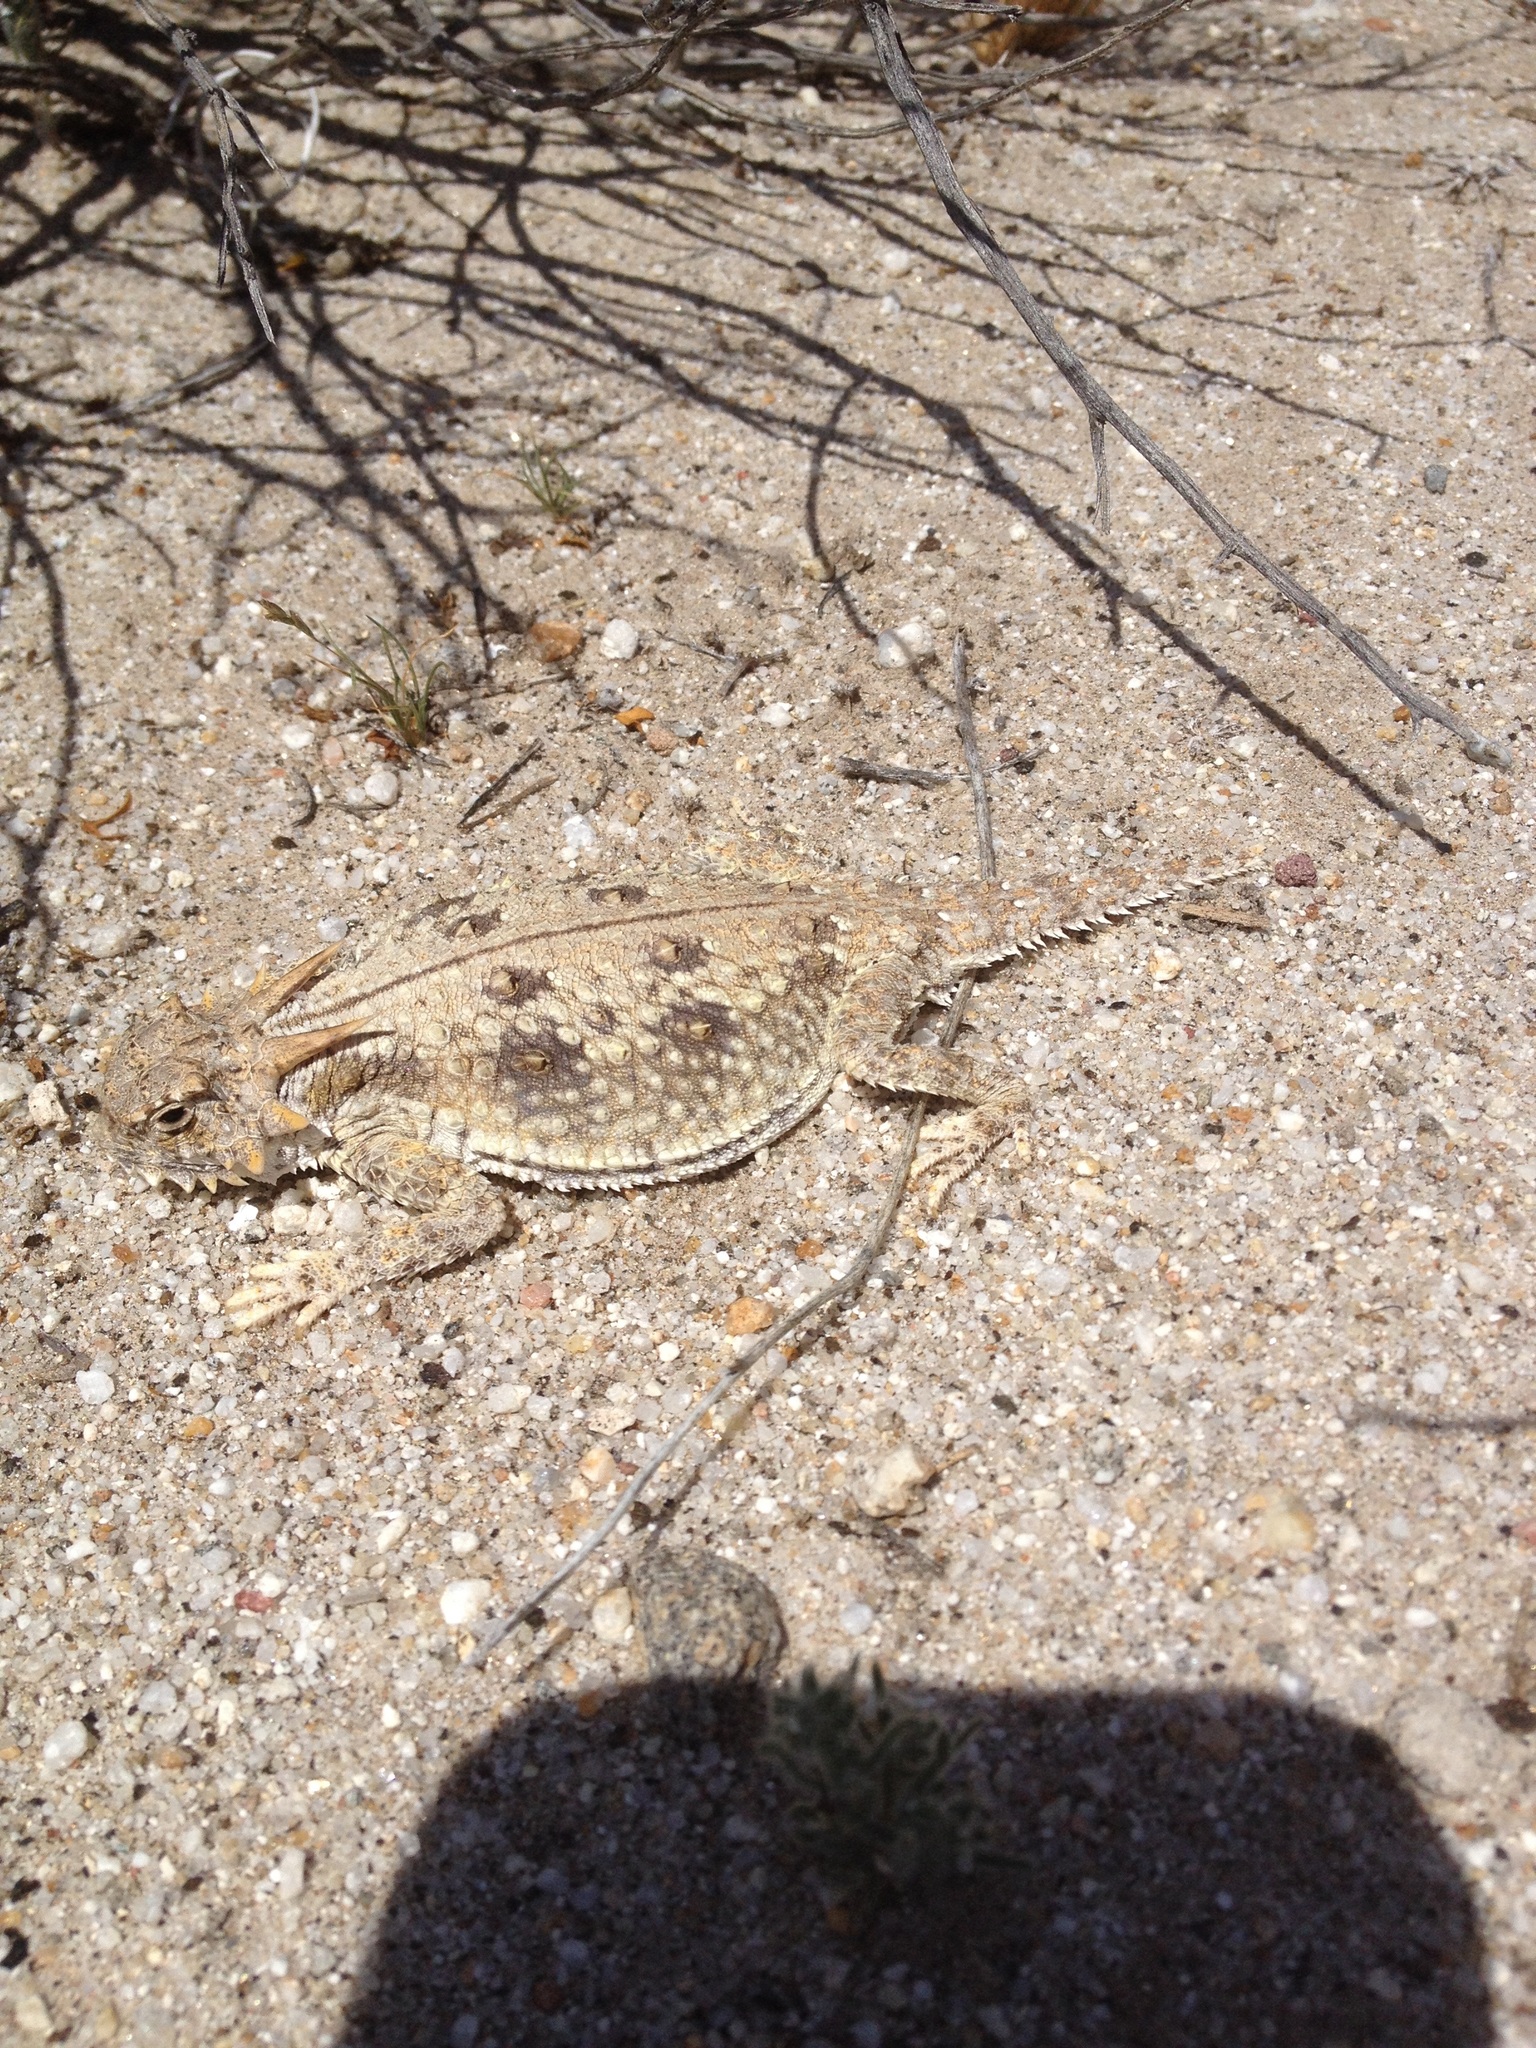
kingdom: Animalia
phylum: Chordata
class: Squamata
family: Phrynosomatidae
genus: Phrynosoma
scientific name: Phrynosoma mcallii
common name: Flat-tailed horned lizard
